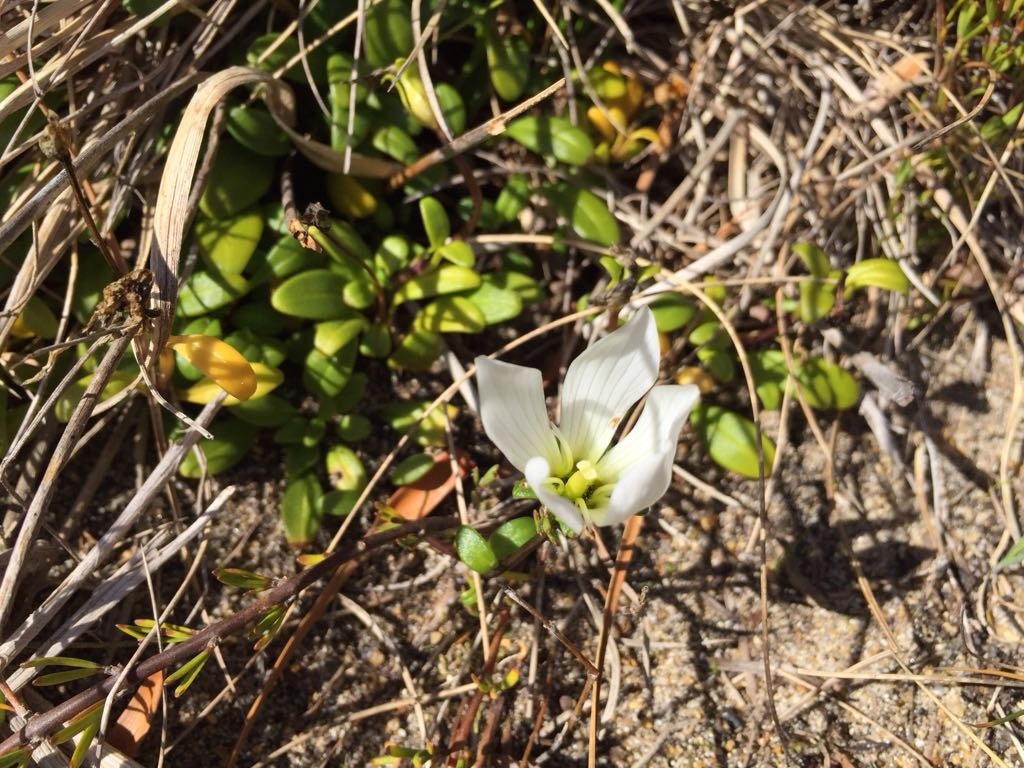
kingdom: Plantae
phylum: Tracheophyta
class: Magnoliopsida
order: Gentianales
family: Gentianaceae
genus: Gentianella
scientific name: Gentianella saxosa
